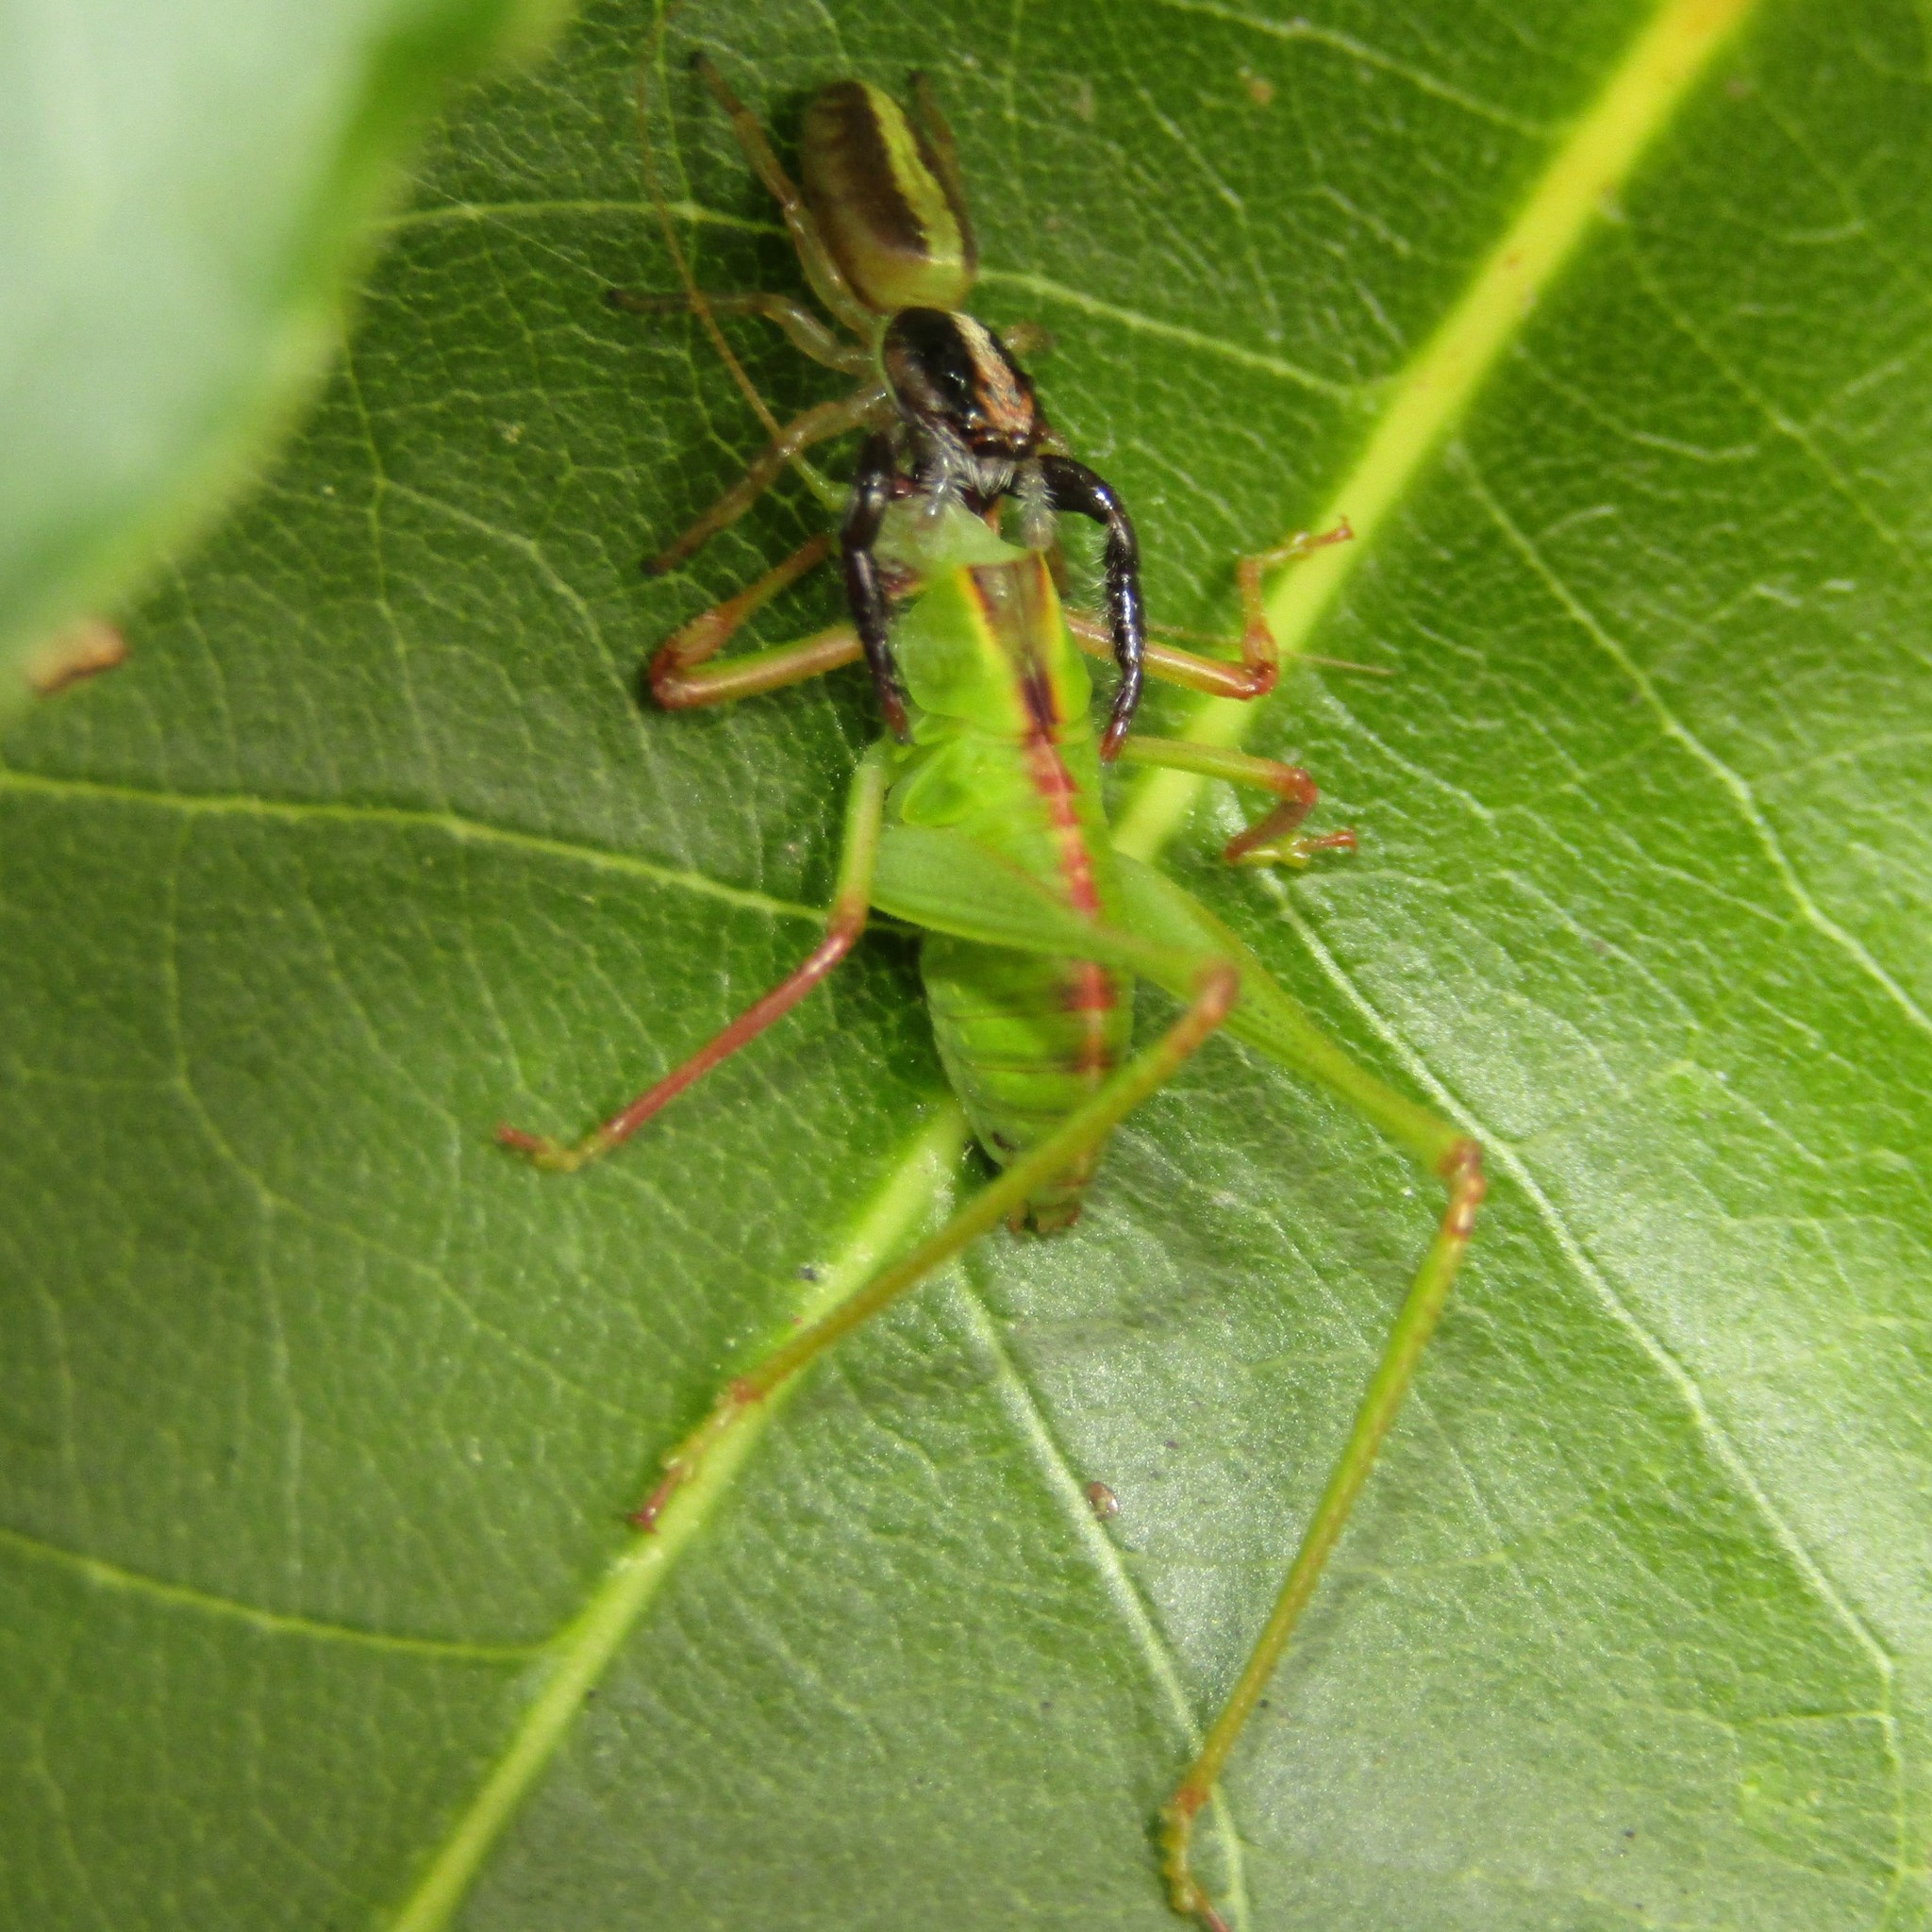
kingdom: Animalia
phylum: Arthropoda
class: Insecta
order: Orthoptera
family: Tettigoniidae
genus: Caedicia
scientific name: Caedicia simplex
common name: Common garden katydid
